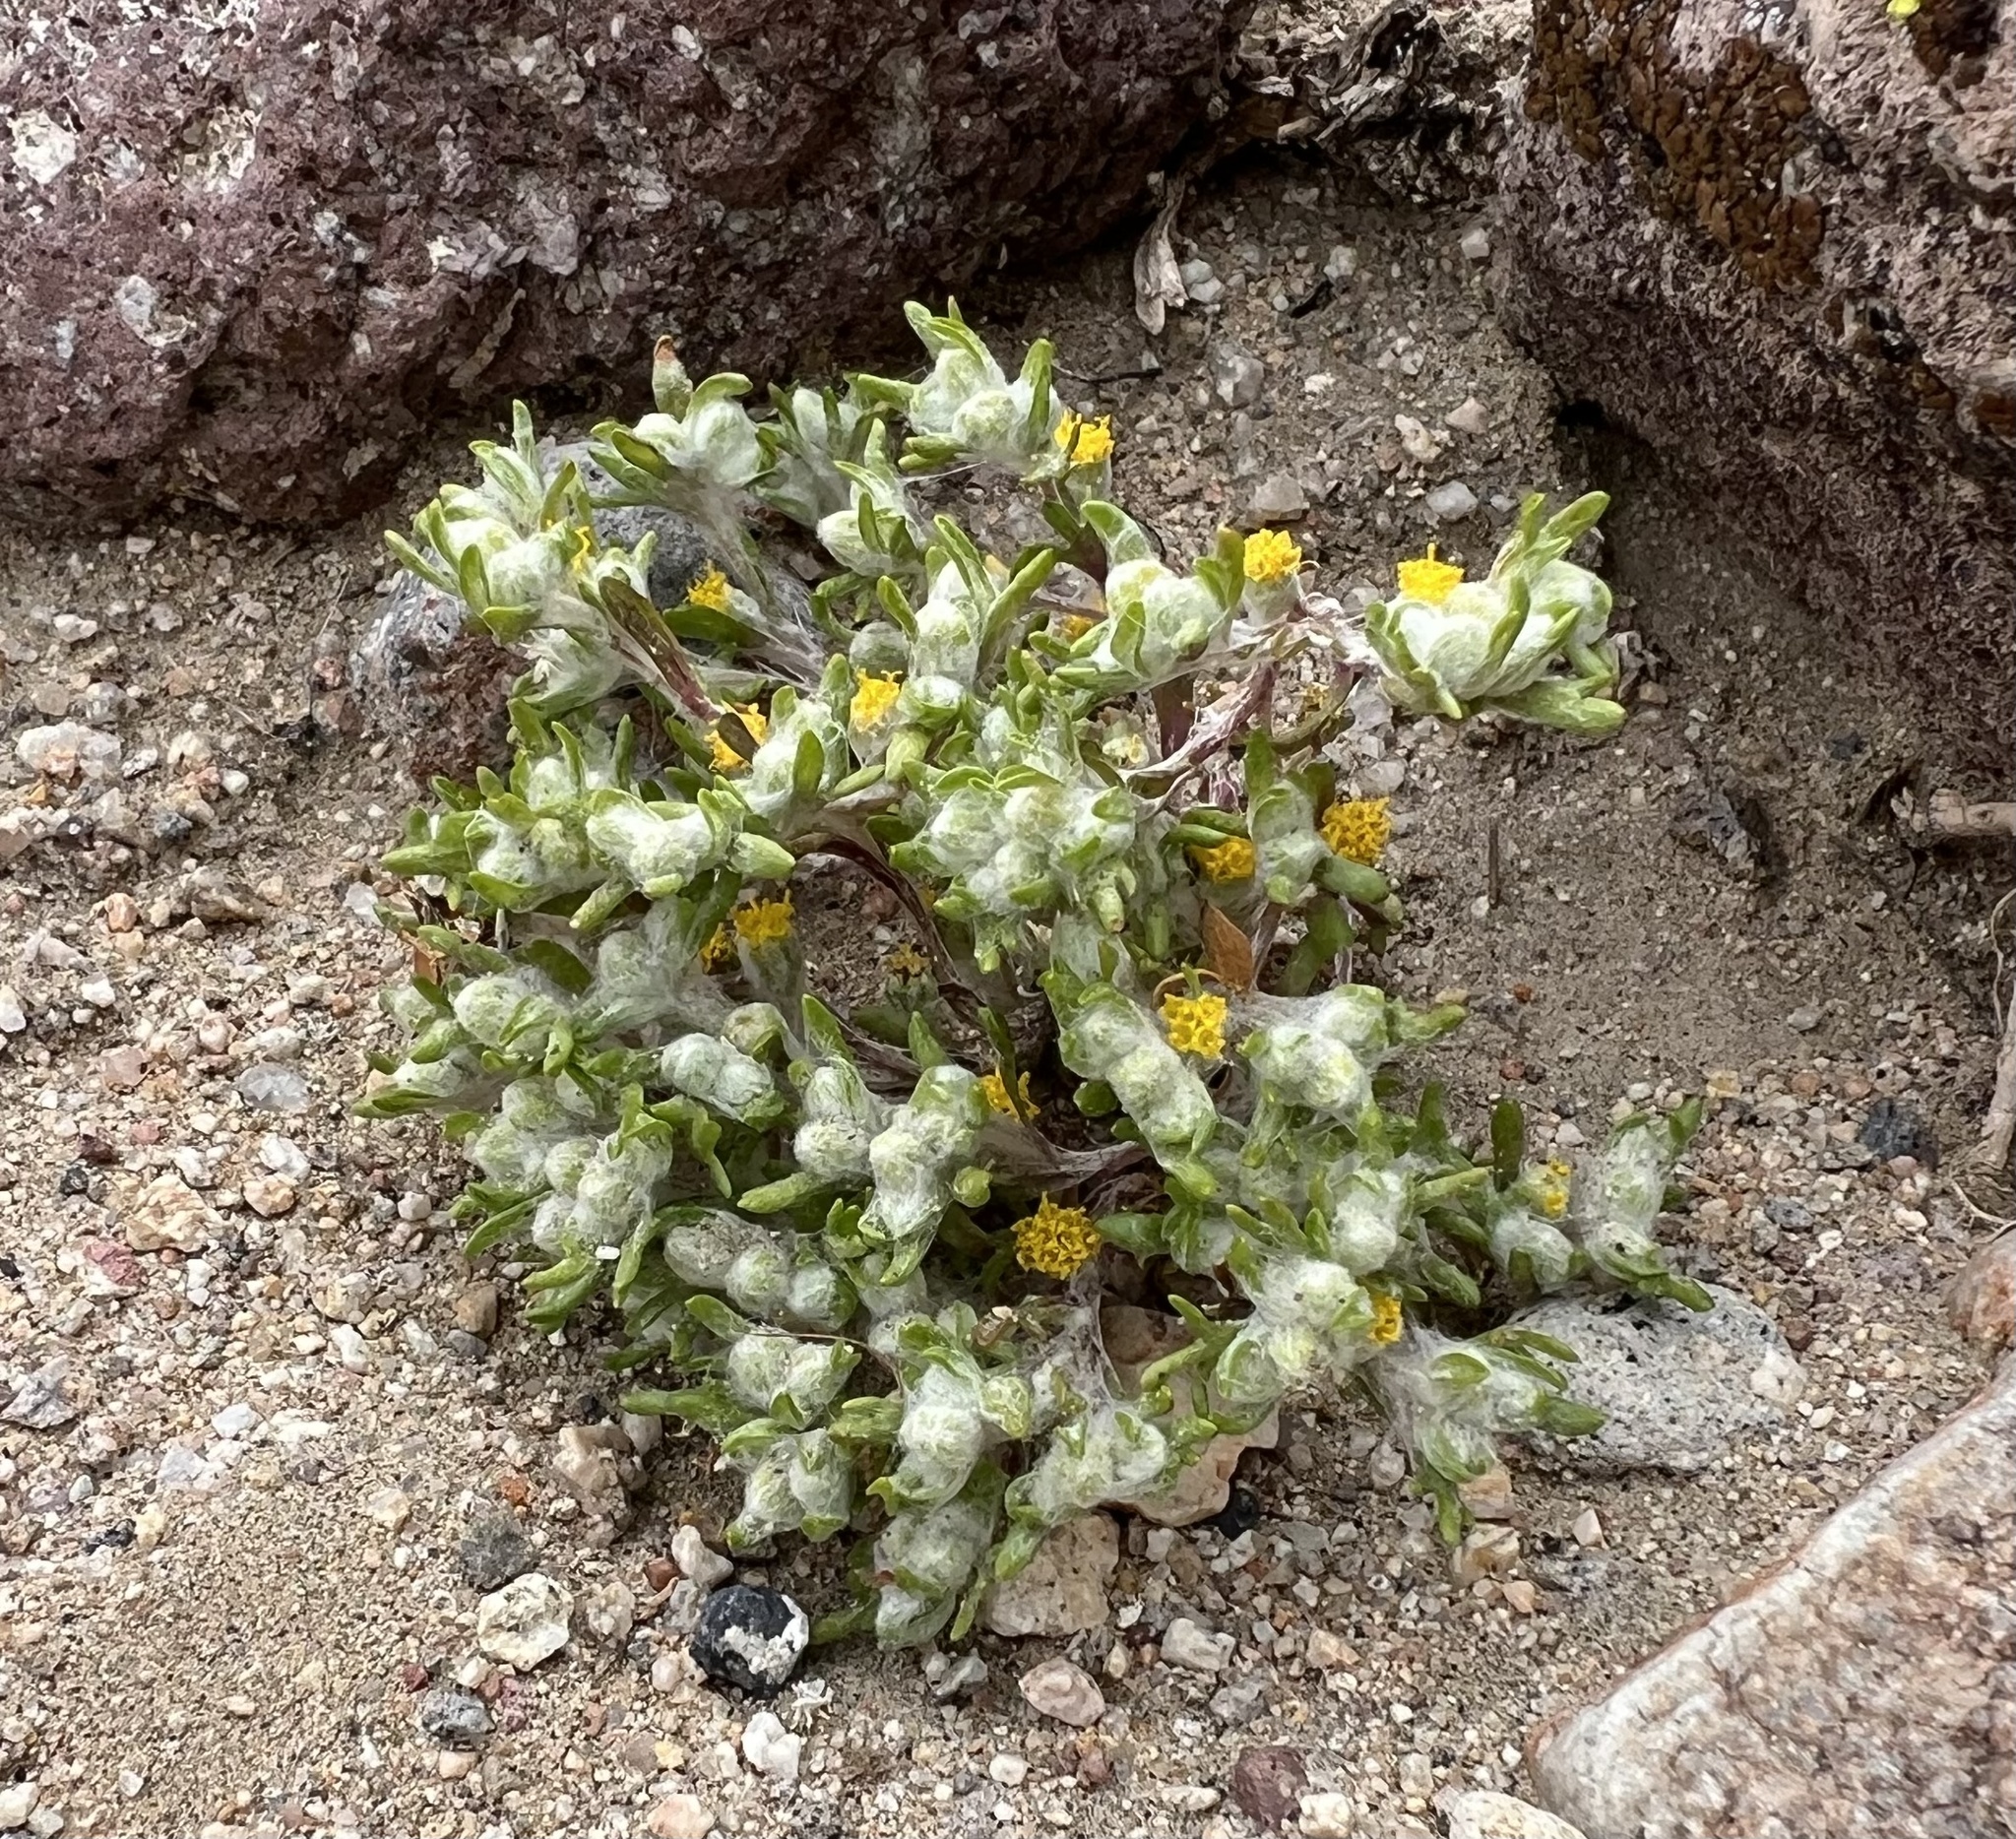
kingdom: Plantae
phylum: Tracheophyta
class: Magnoliopsida
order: Asterales
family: Asteraceae
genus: Eriophyllum
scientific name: Eriophyllum pringlei
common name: Pringle's woolly-sunflower
